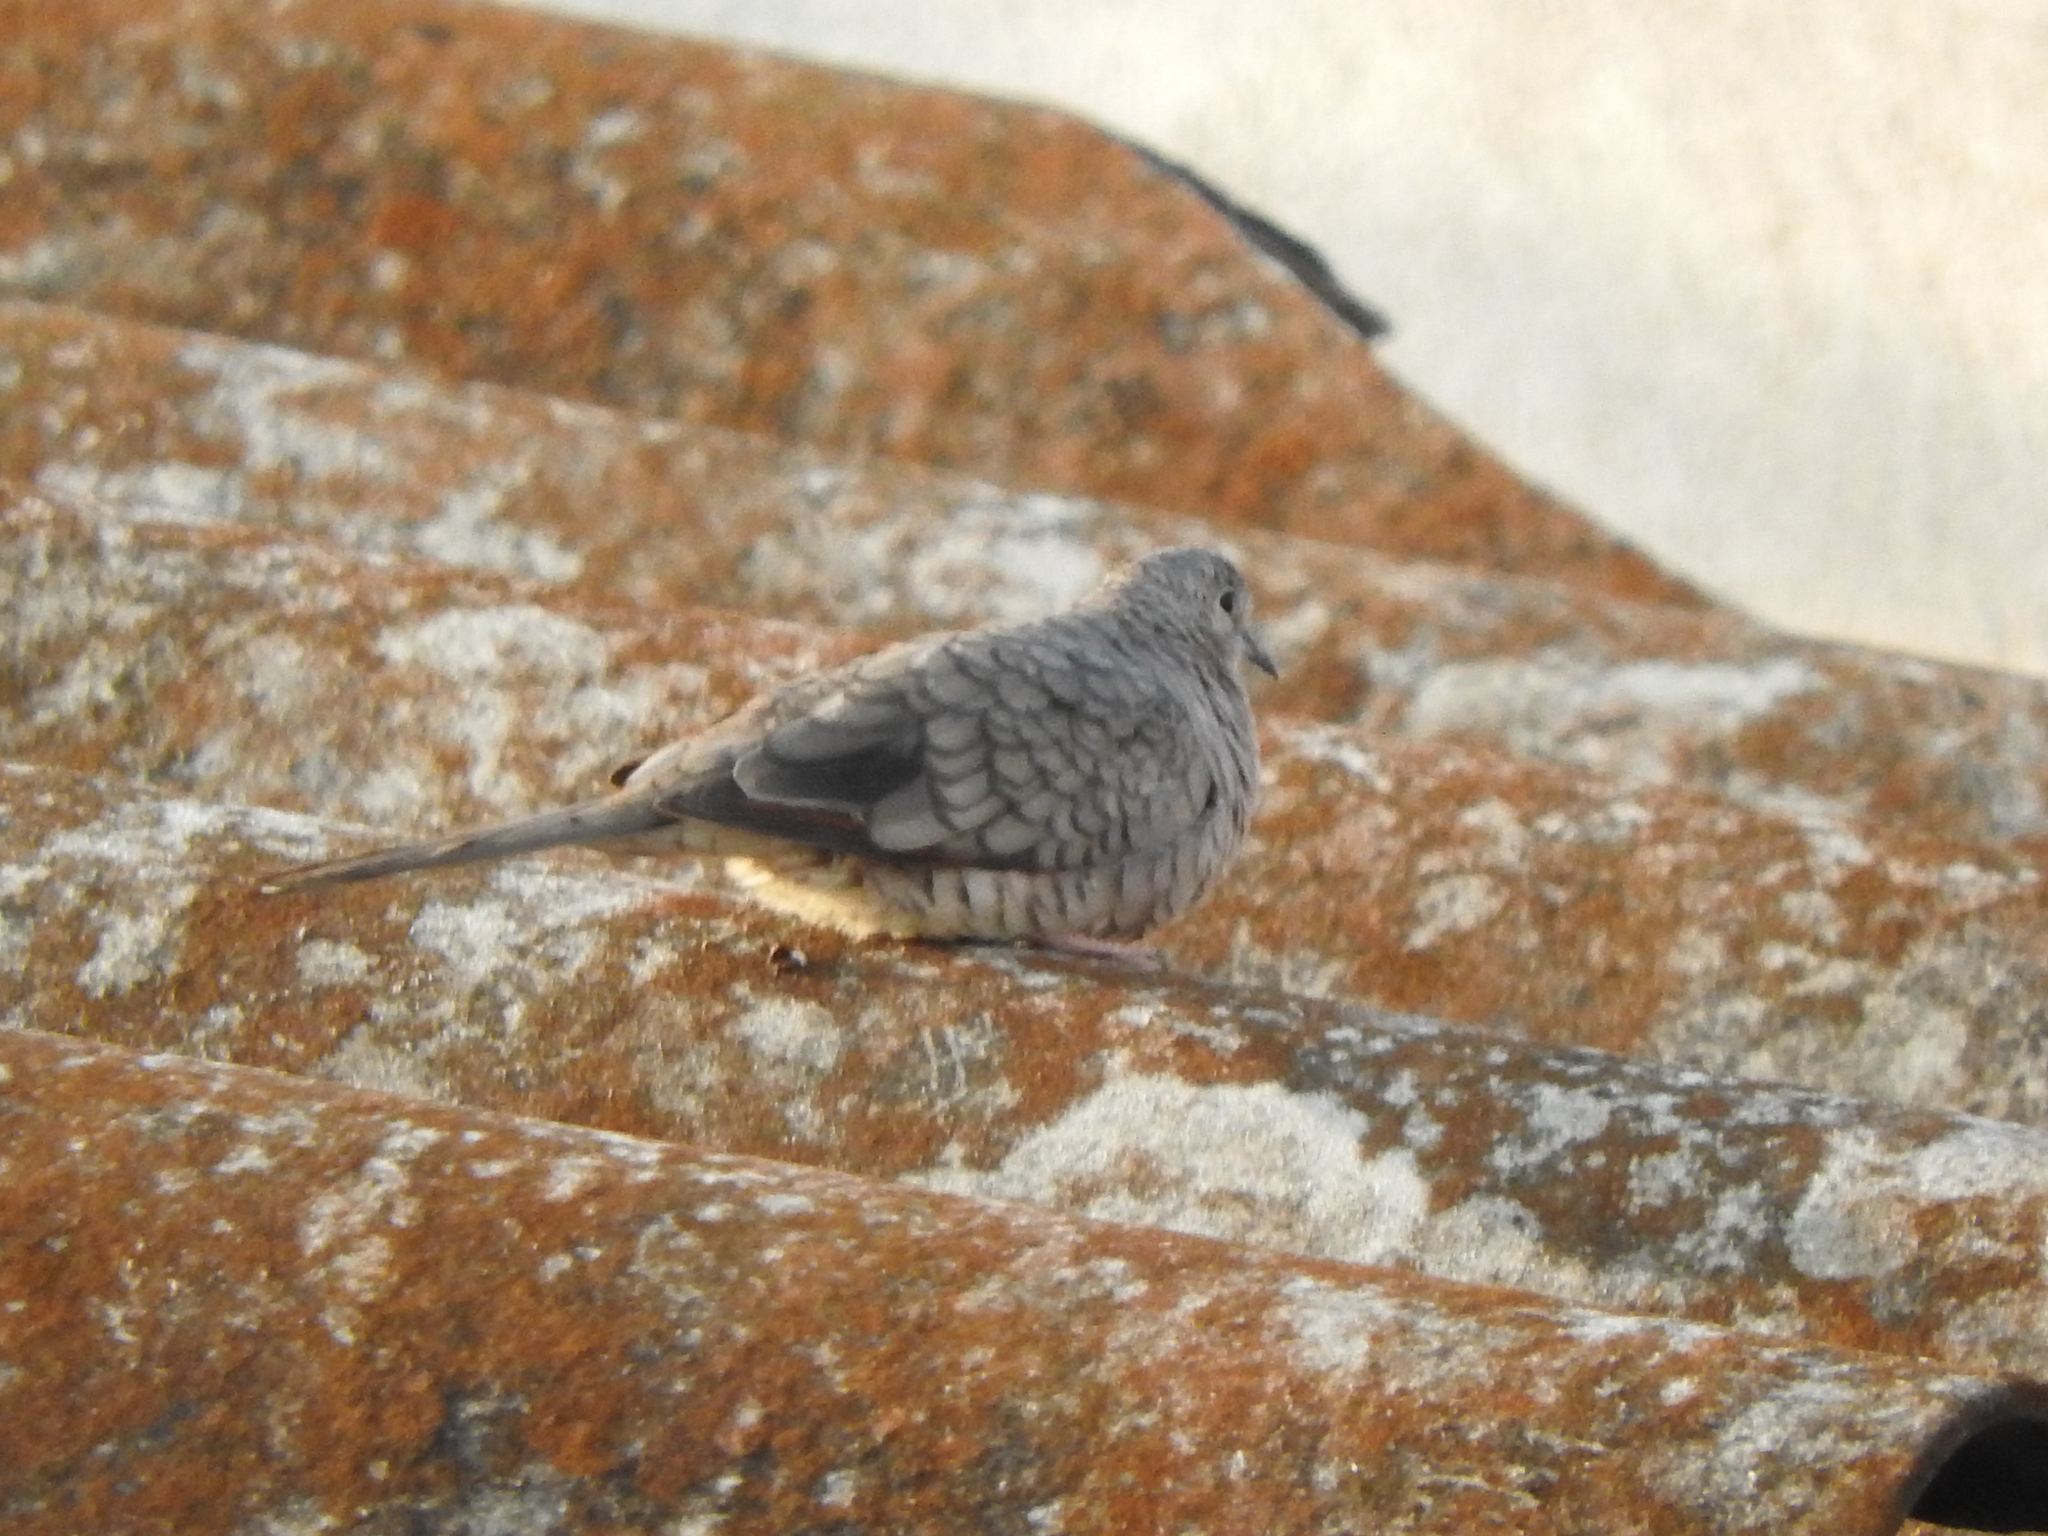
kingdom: Animalia
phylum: Chordata
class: Aves
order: Columbiformes
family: Columbidae
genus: Columbina
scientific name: Columbina inca
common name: Inca dove
